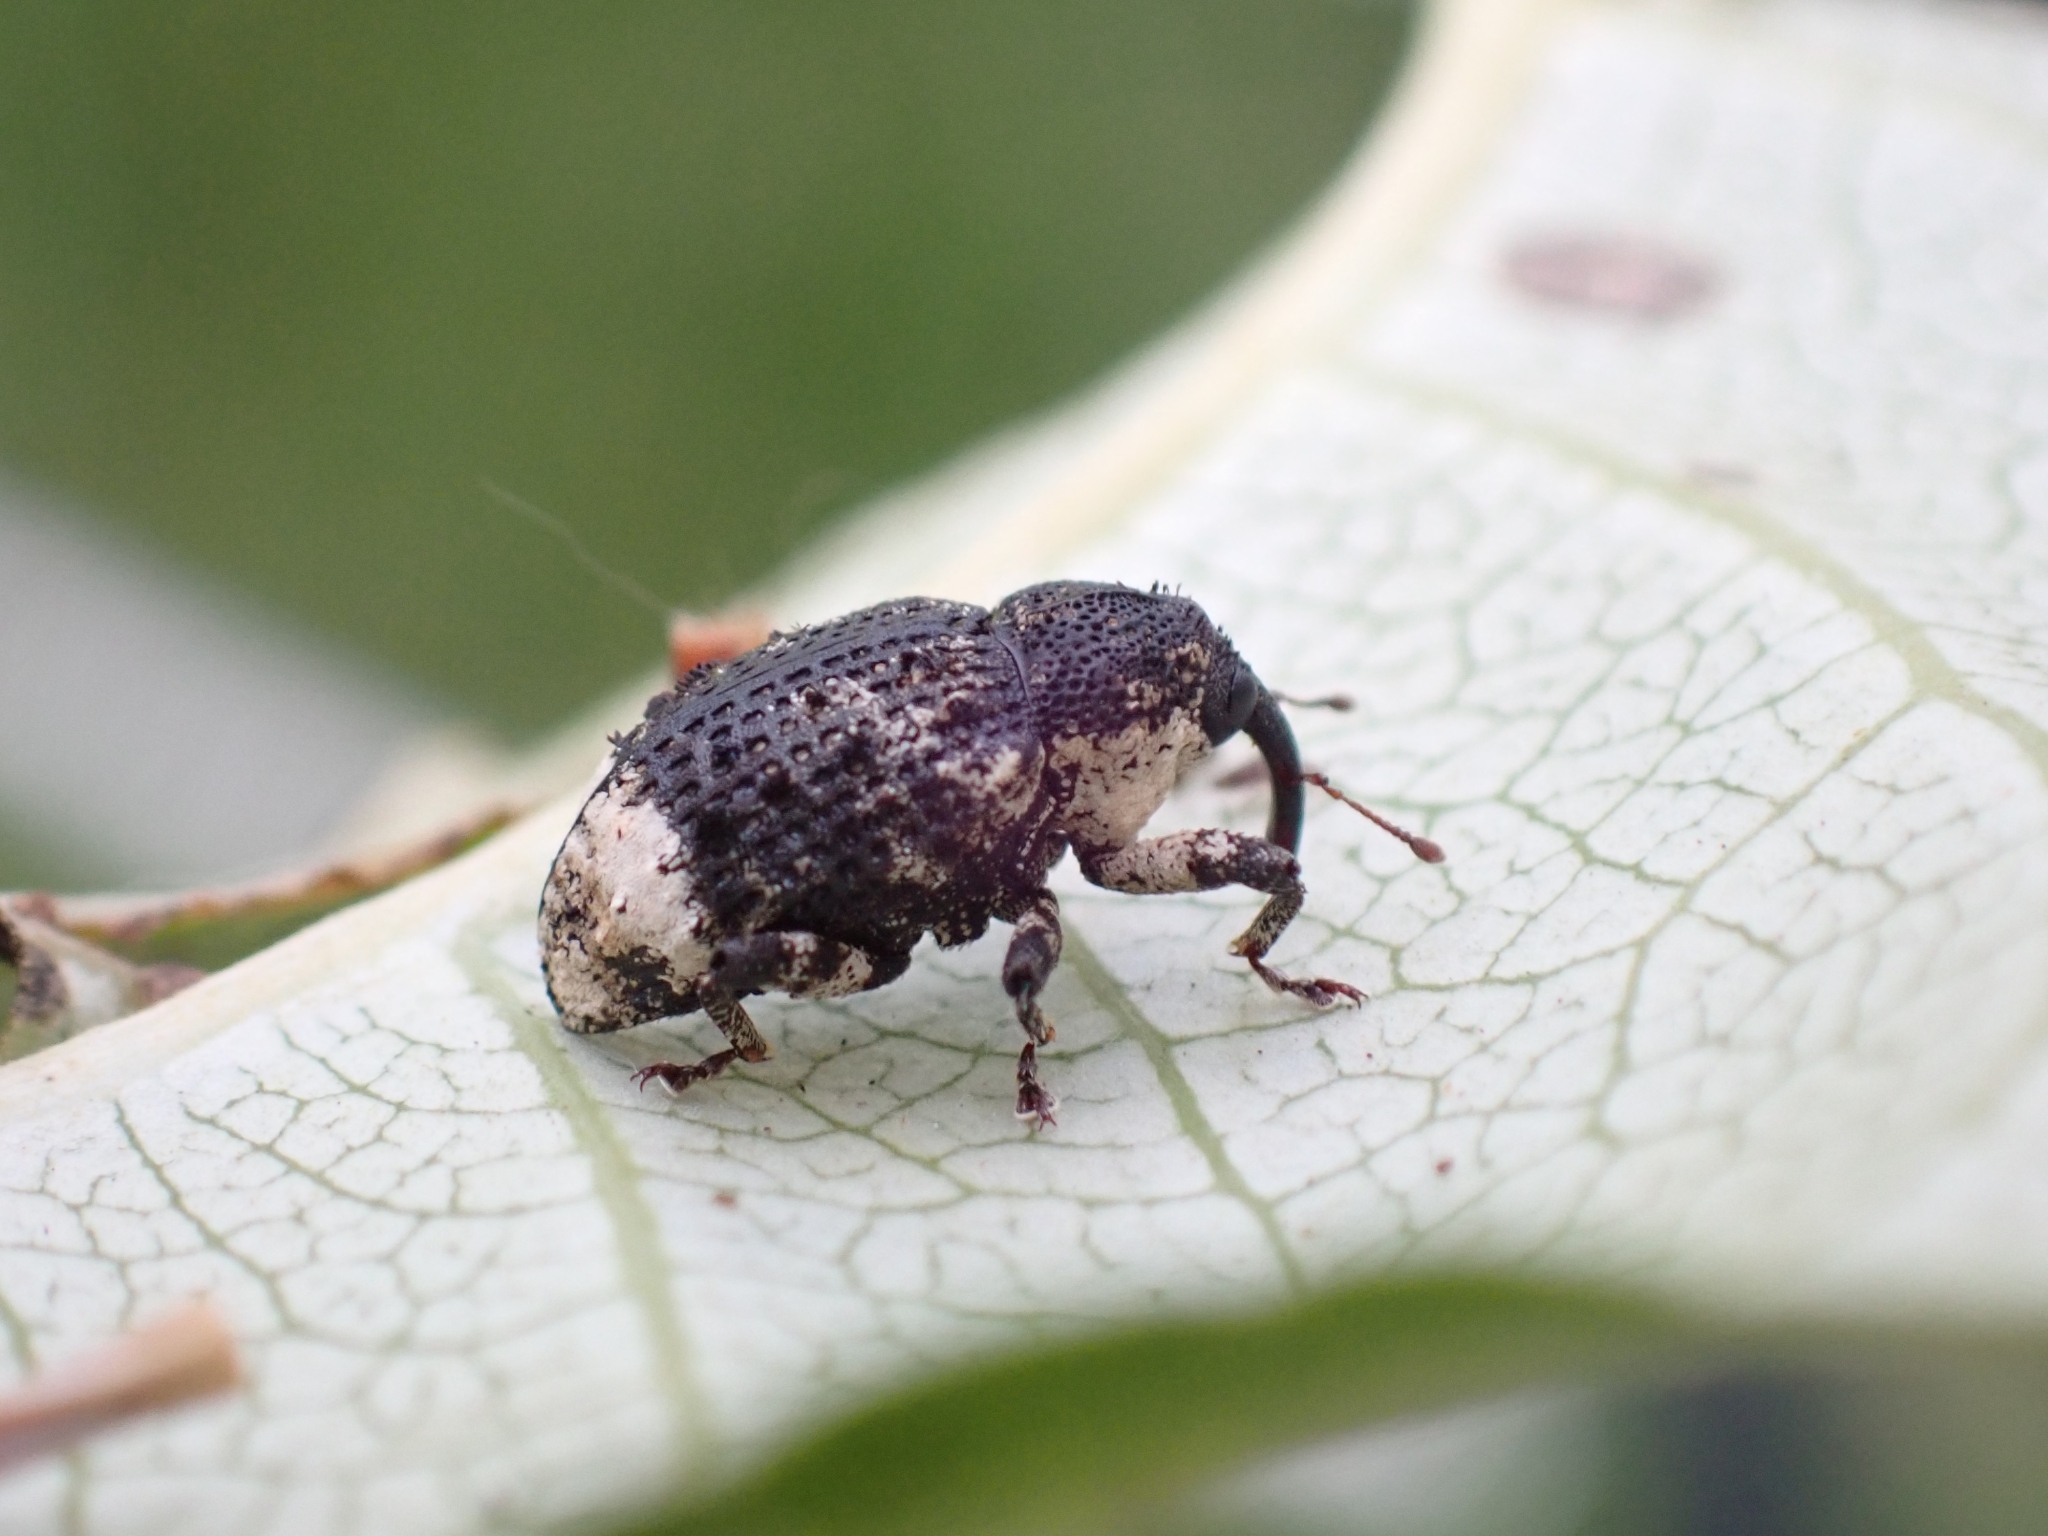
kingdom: Animalia
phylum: Arthropoda
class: Insecta
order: Coleoptera
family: Curculionidae
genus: Cryptorhynchus
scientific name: Cryptorhynchus lapathi
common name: Weevil
